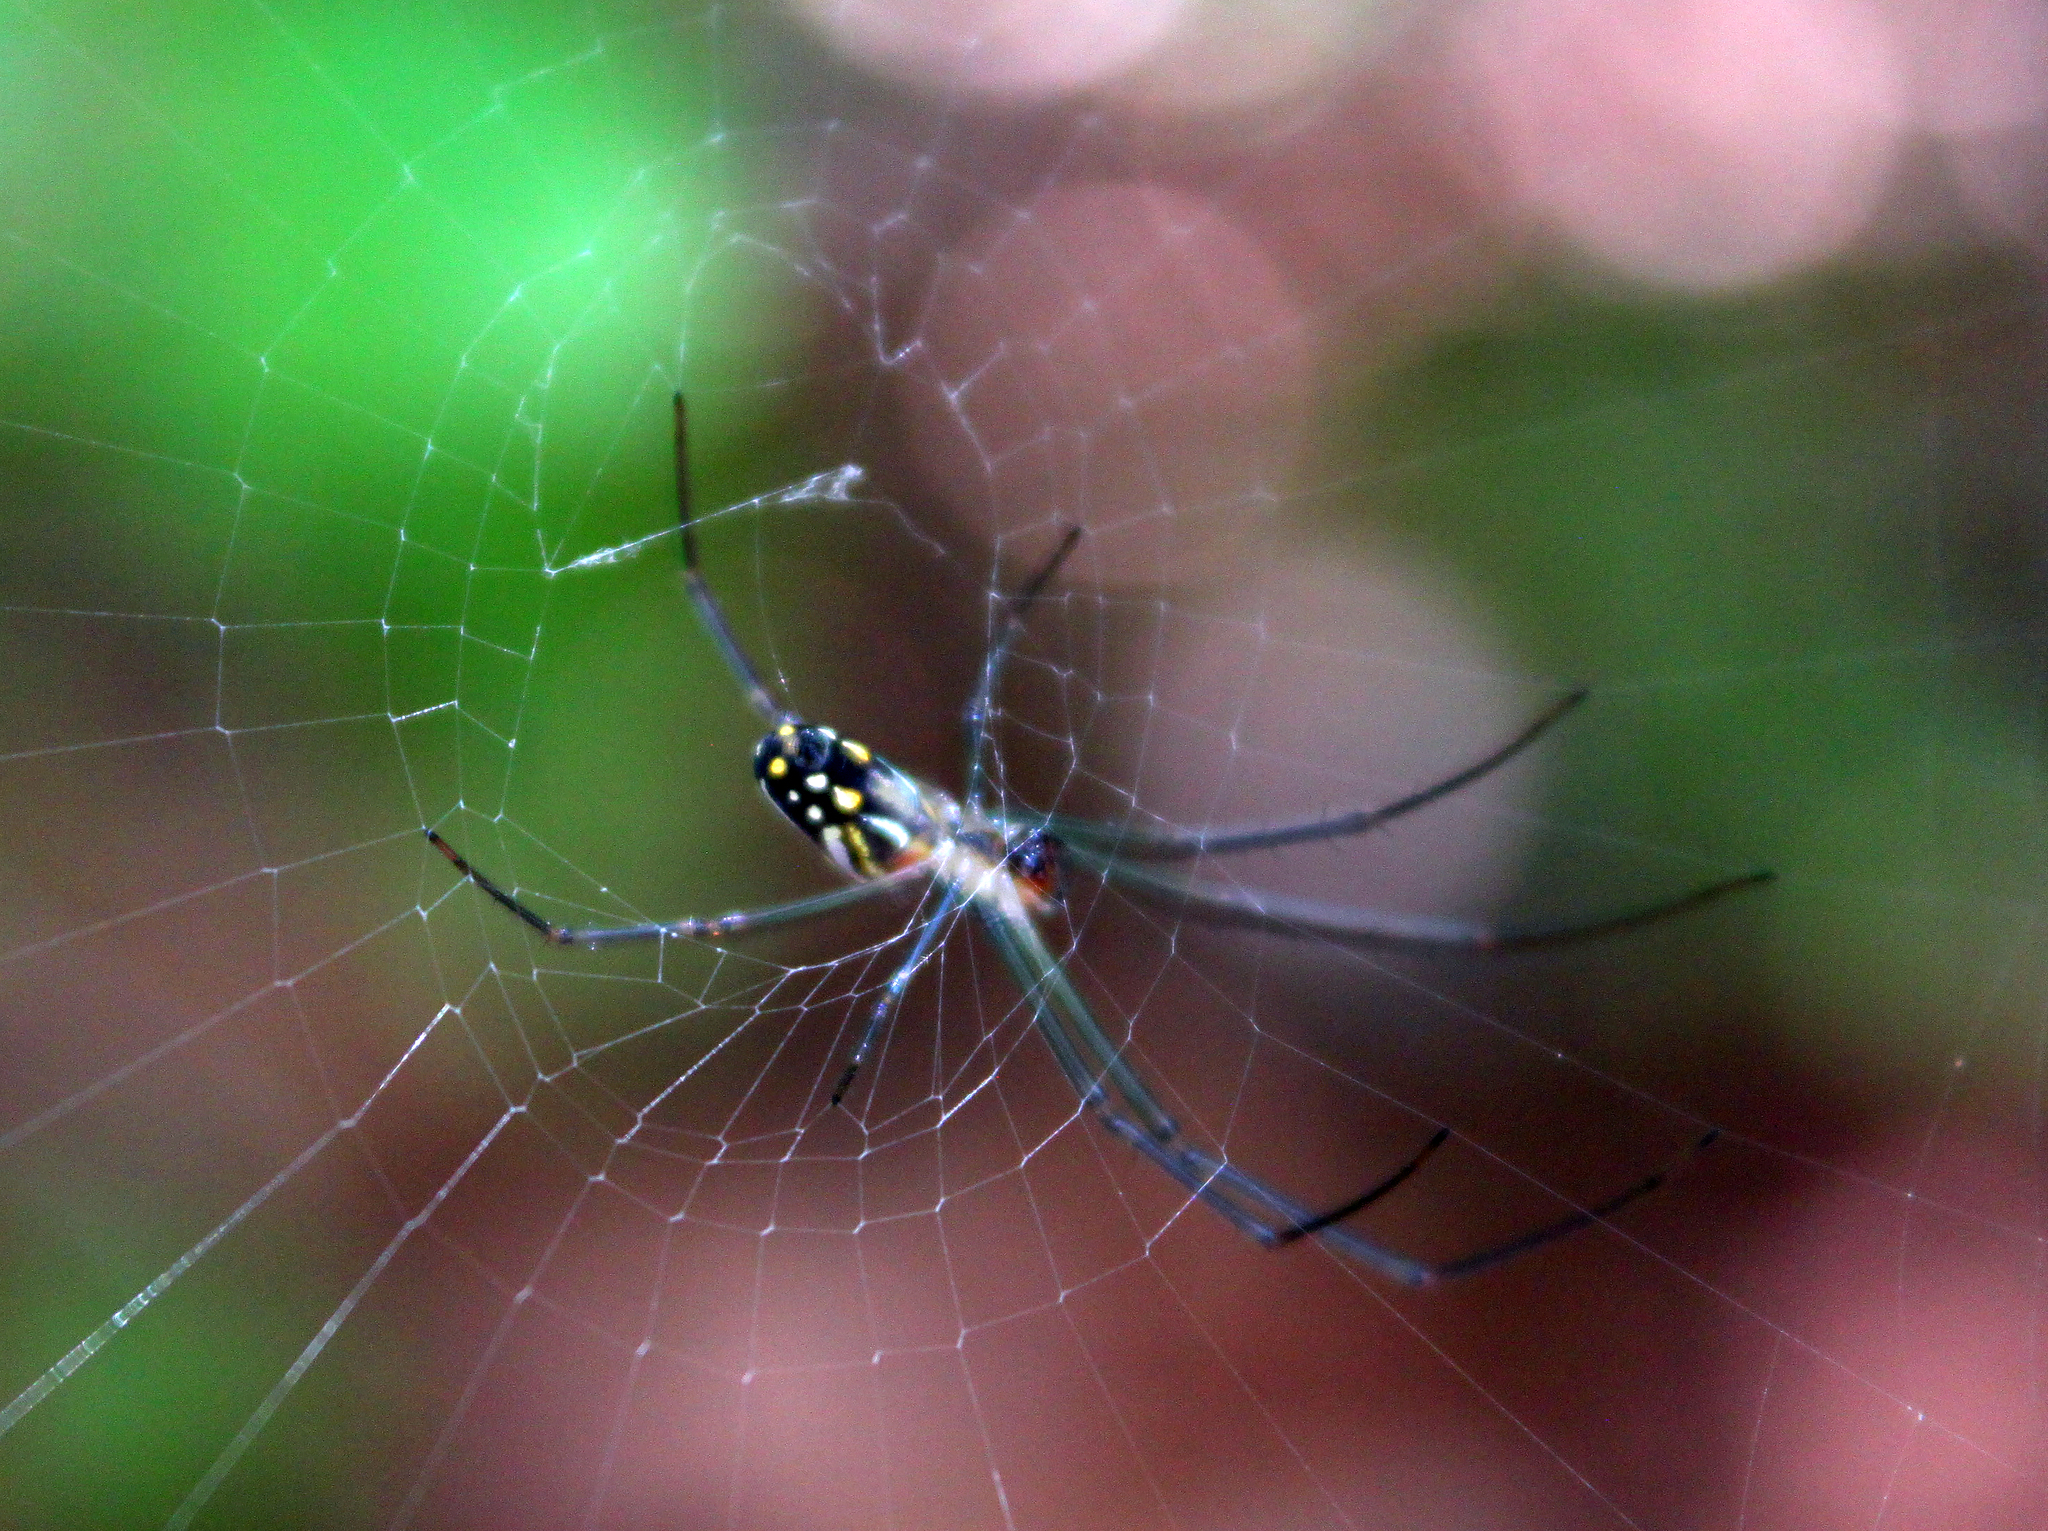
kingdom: Animalia
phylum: Arthropoda
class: Arachnida
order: Araneae
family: Tetragnathidae
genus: Leucauge
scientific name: Leucauge argyra
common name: Longjawed orb weavers
